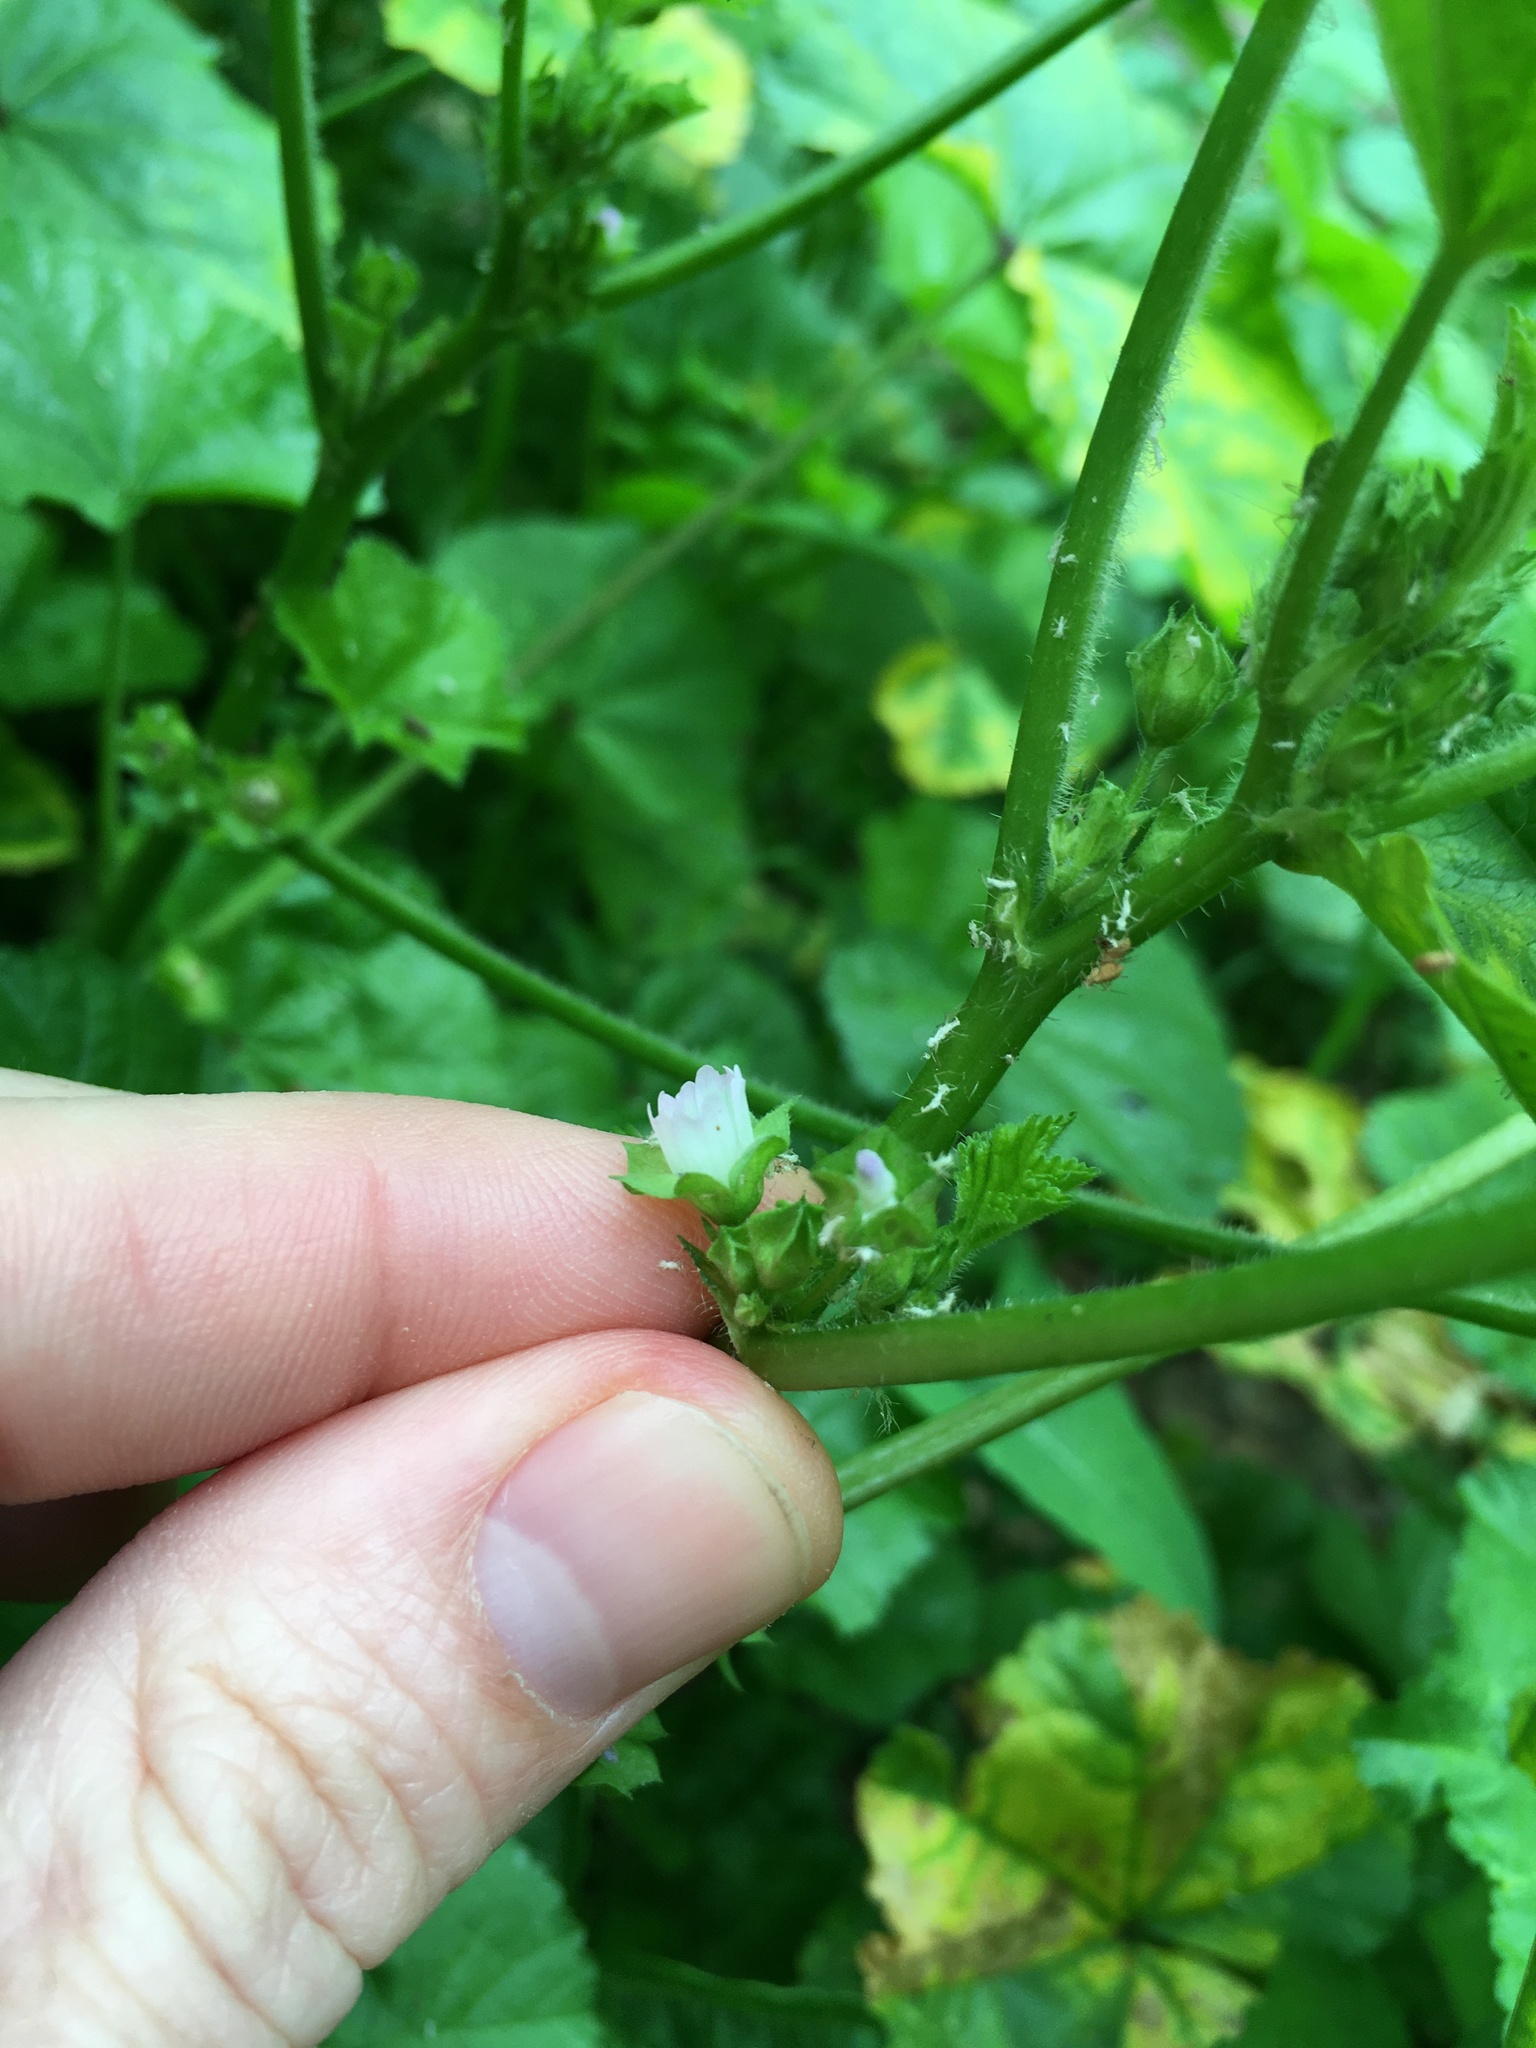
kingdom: Plantae
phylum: Tracheophyta
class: Magnoliopsida
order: Malvales
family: Malvaceae
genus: Malva
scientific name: Malva parviflora
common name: Least mallow
